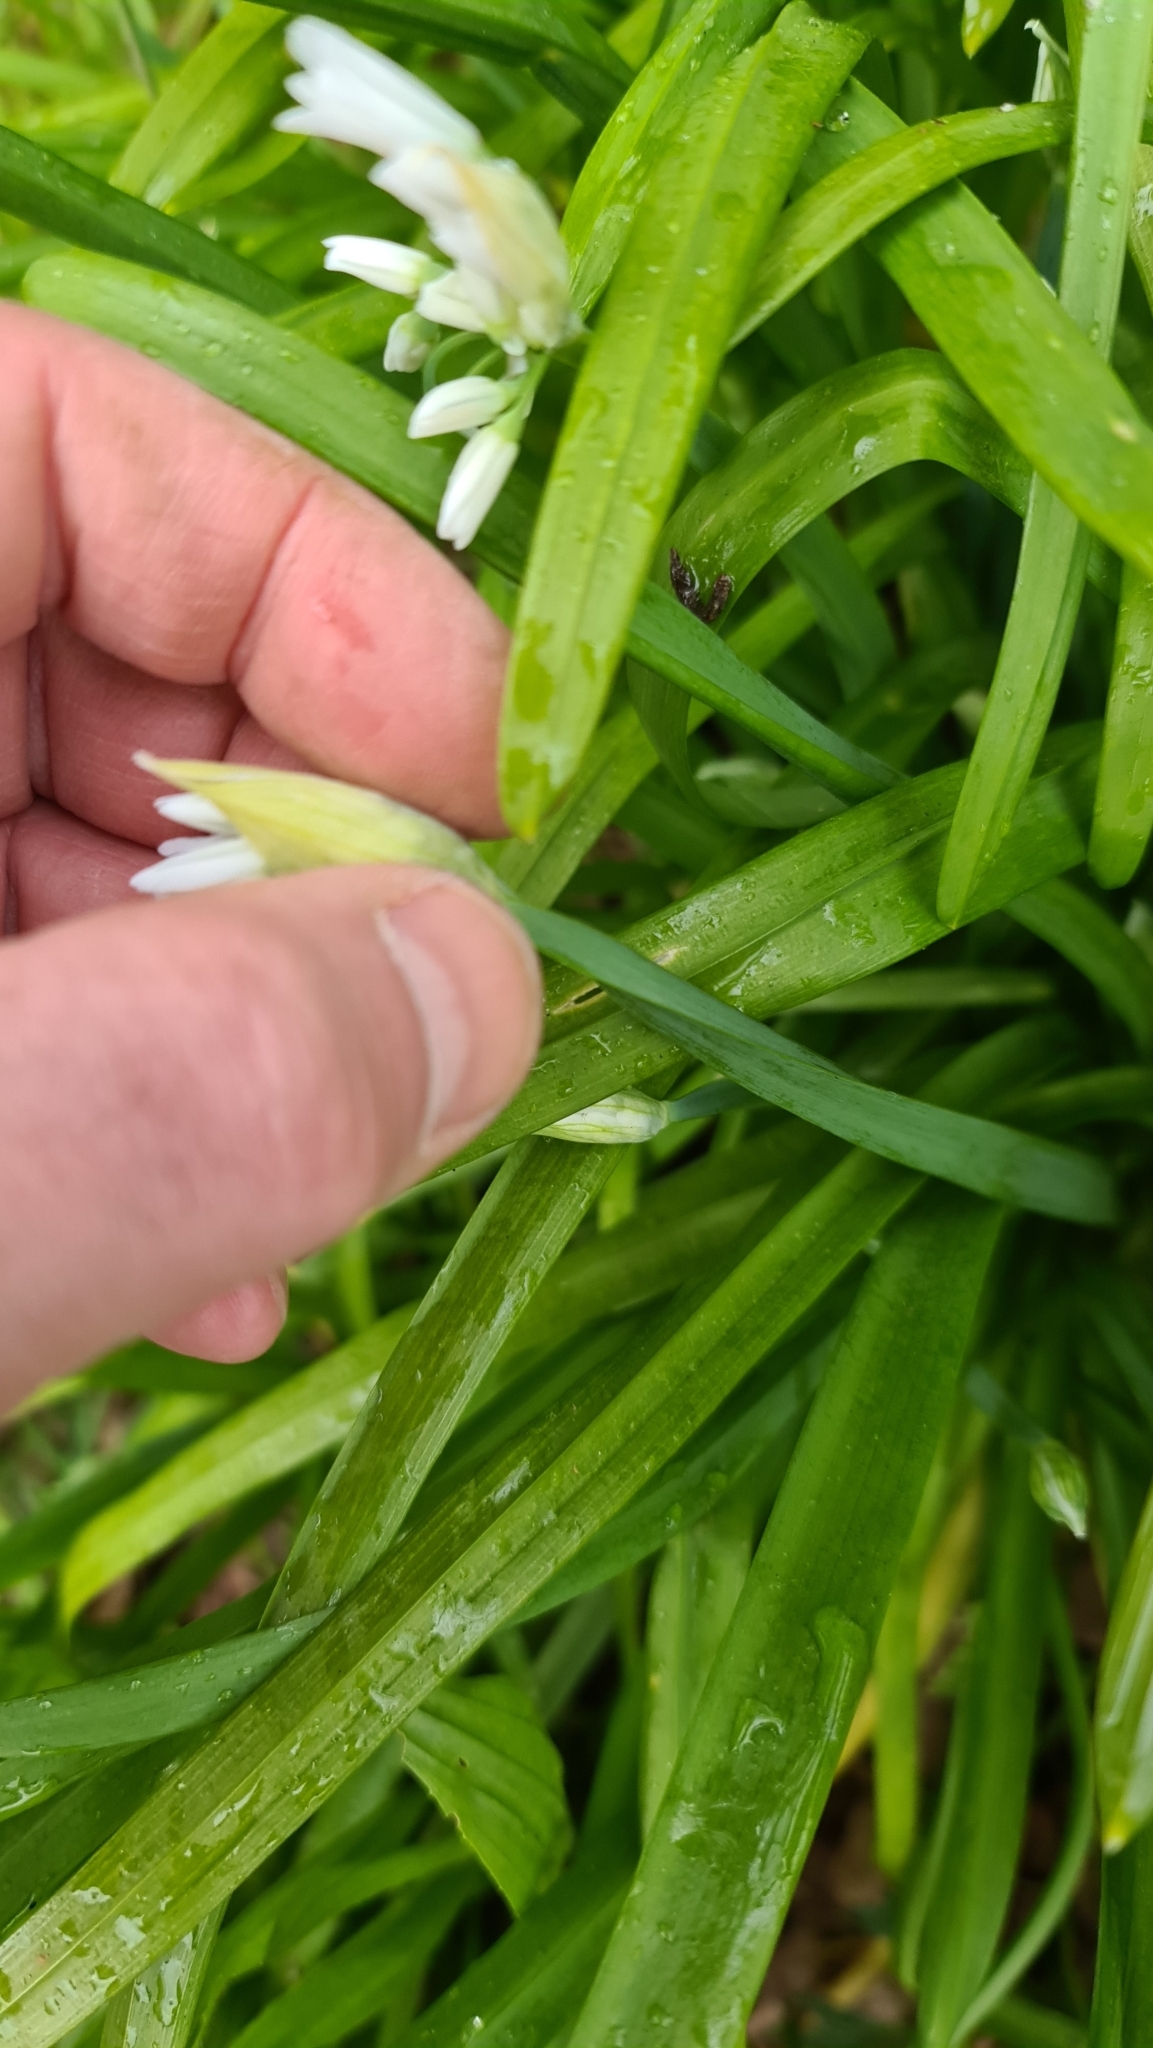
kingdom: Plantae
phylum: Tracheophyta
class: Liliopsida
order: Asparagales
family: Amaryllidaceae
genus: Allium
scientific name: Allium triquetrum
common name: Three-cornered garlic
